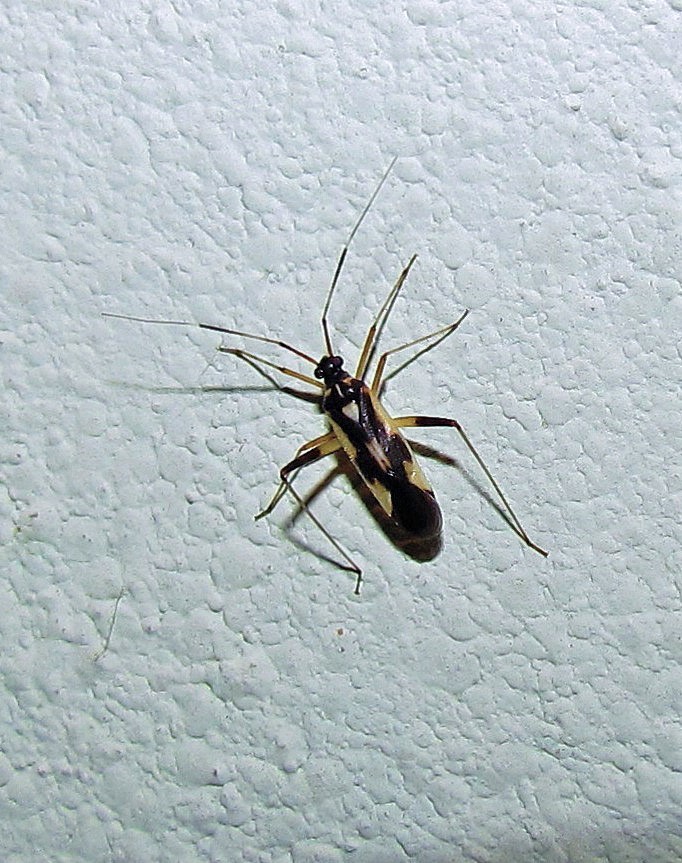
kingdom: Animalia
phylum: Arthropoda
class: Insecta
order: Hemiptera
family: Miridae
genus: Garganus
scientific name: Garganus saltensis
